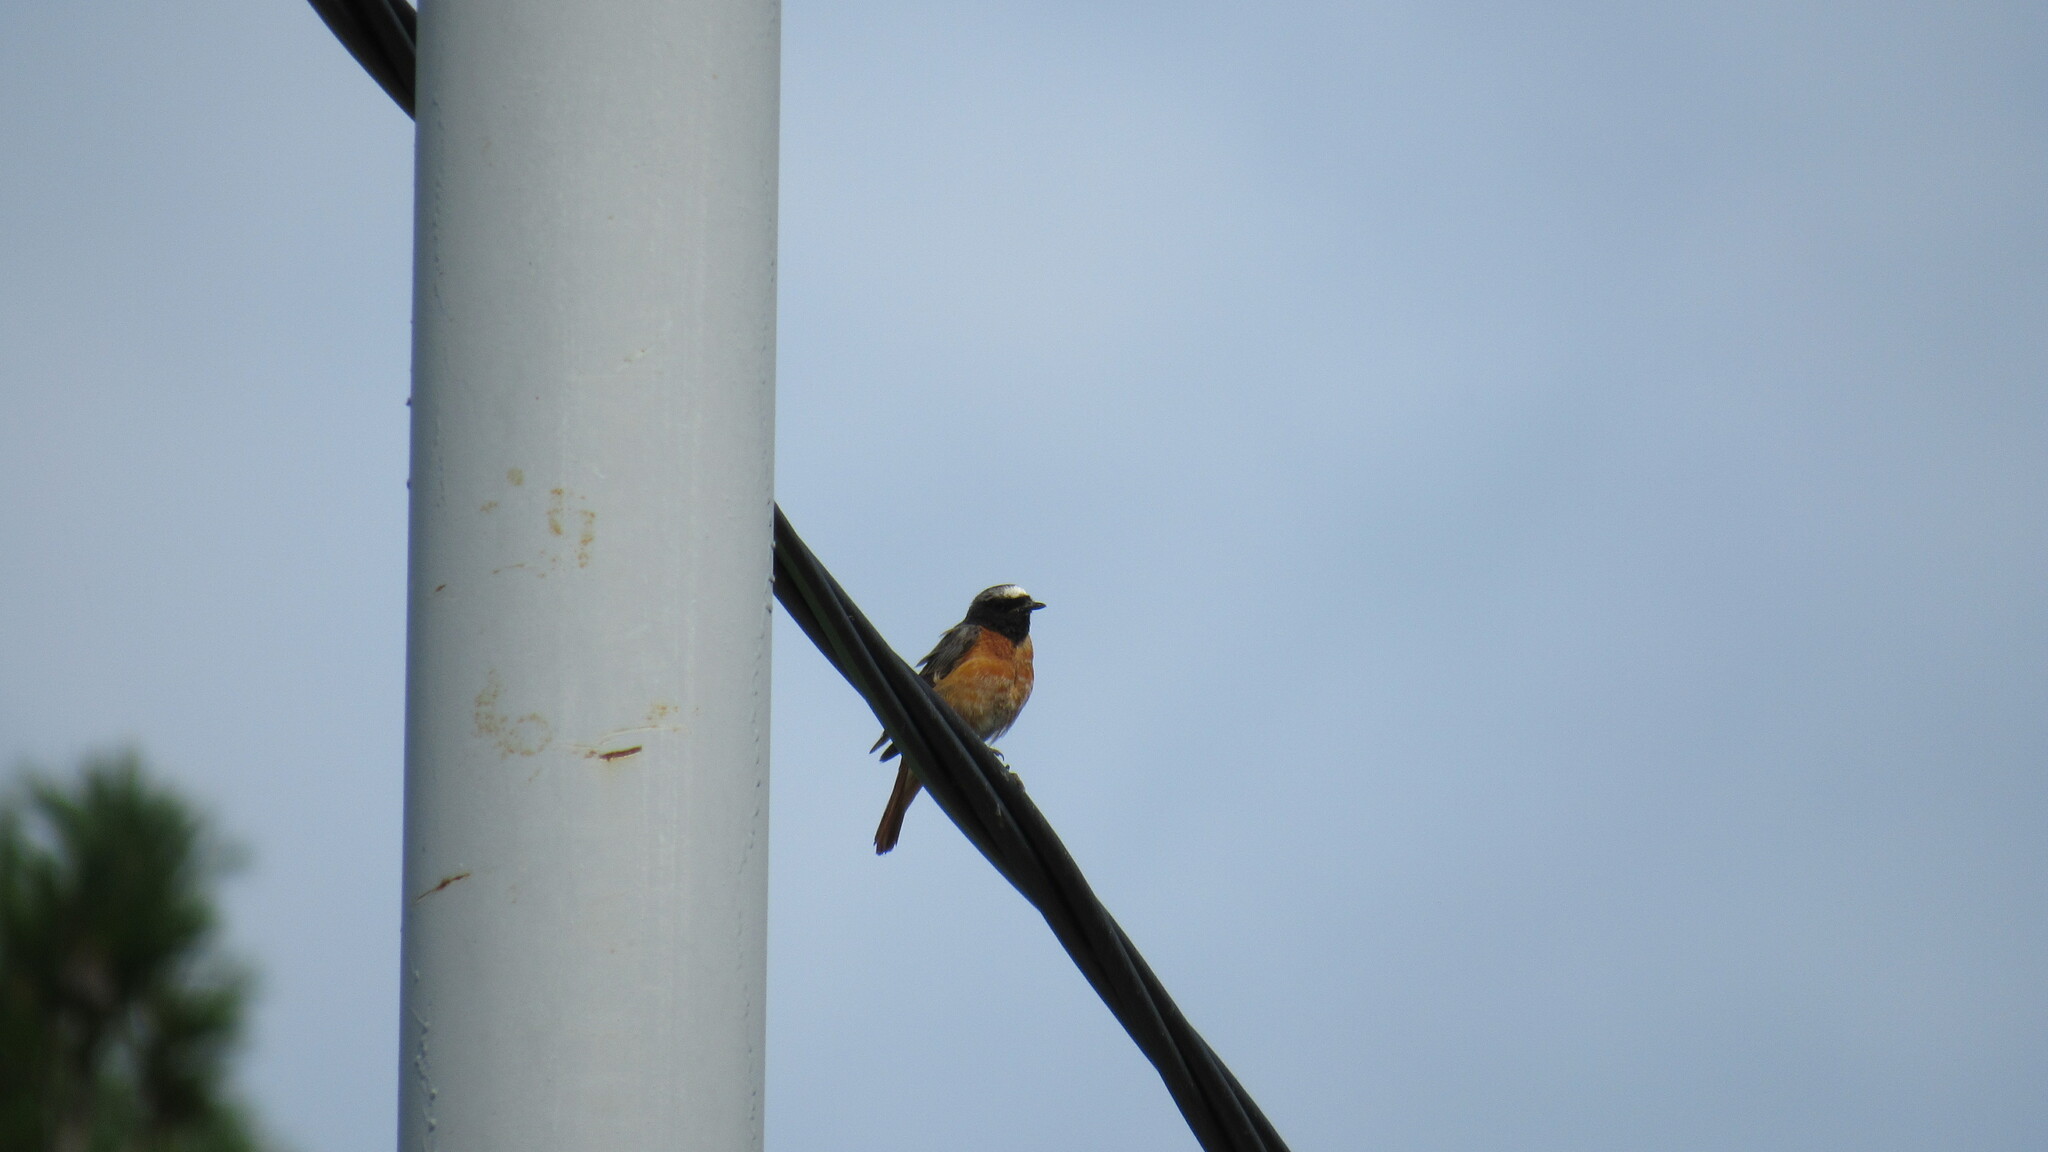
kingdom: Animalia
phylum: Chordata
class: Aves
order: Passeriformes
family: Muscicapidae
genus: Phoenicurus
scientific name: Phoenicurus phoenicurus
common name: Common redstart
